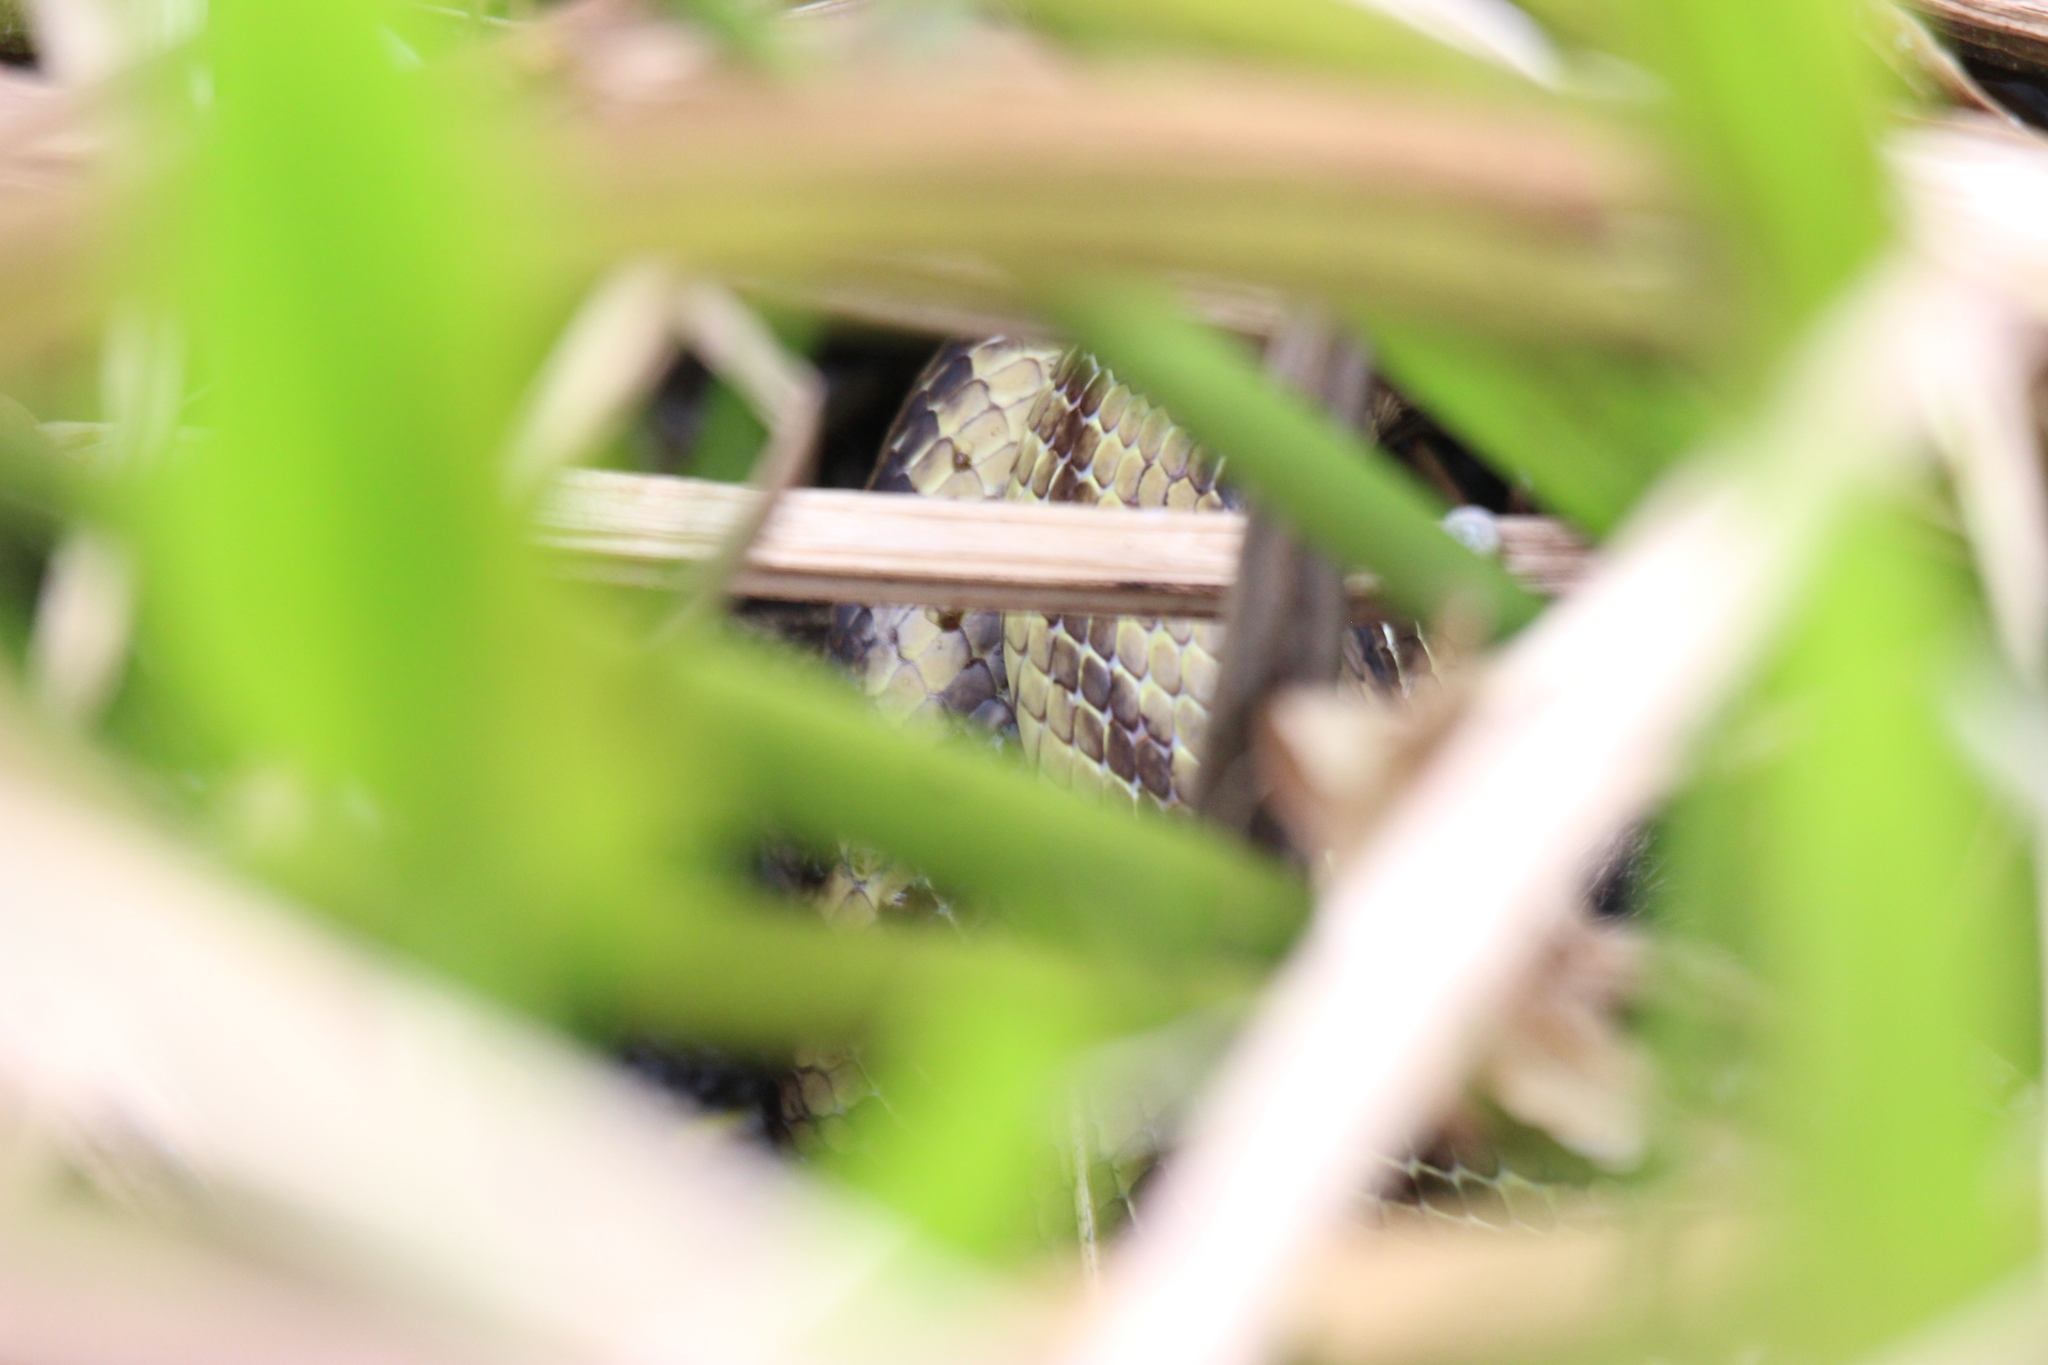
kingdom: Animalia
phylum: Chordata
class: Squamata
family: Colubridae
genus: Pantherophis
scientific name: Pantherophis alleghaniensis
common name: Eastern rat snake
